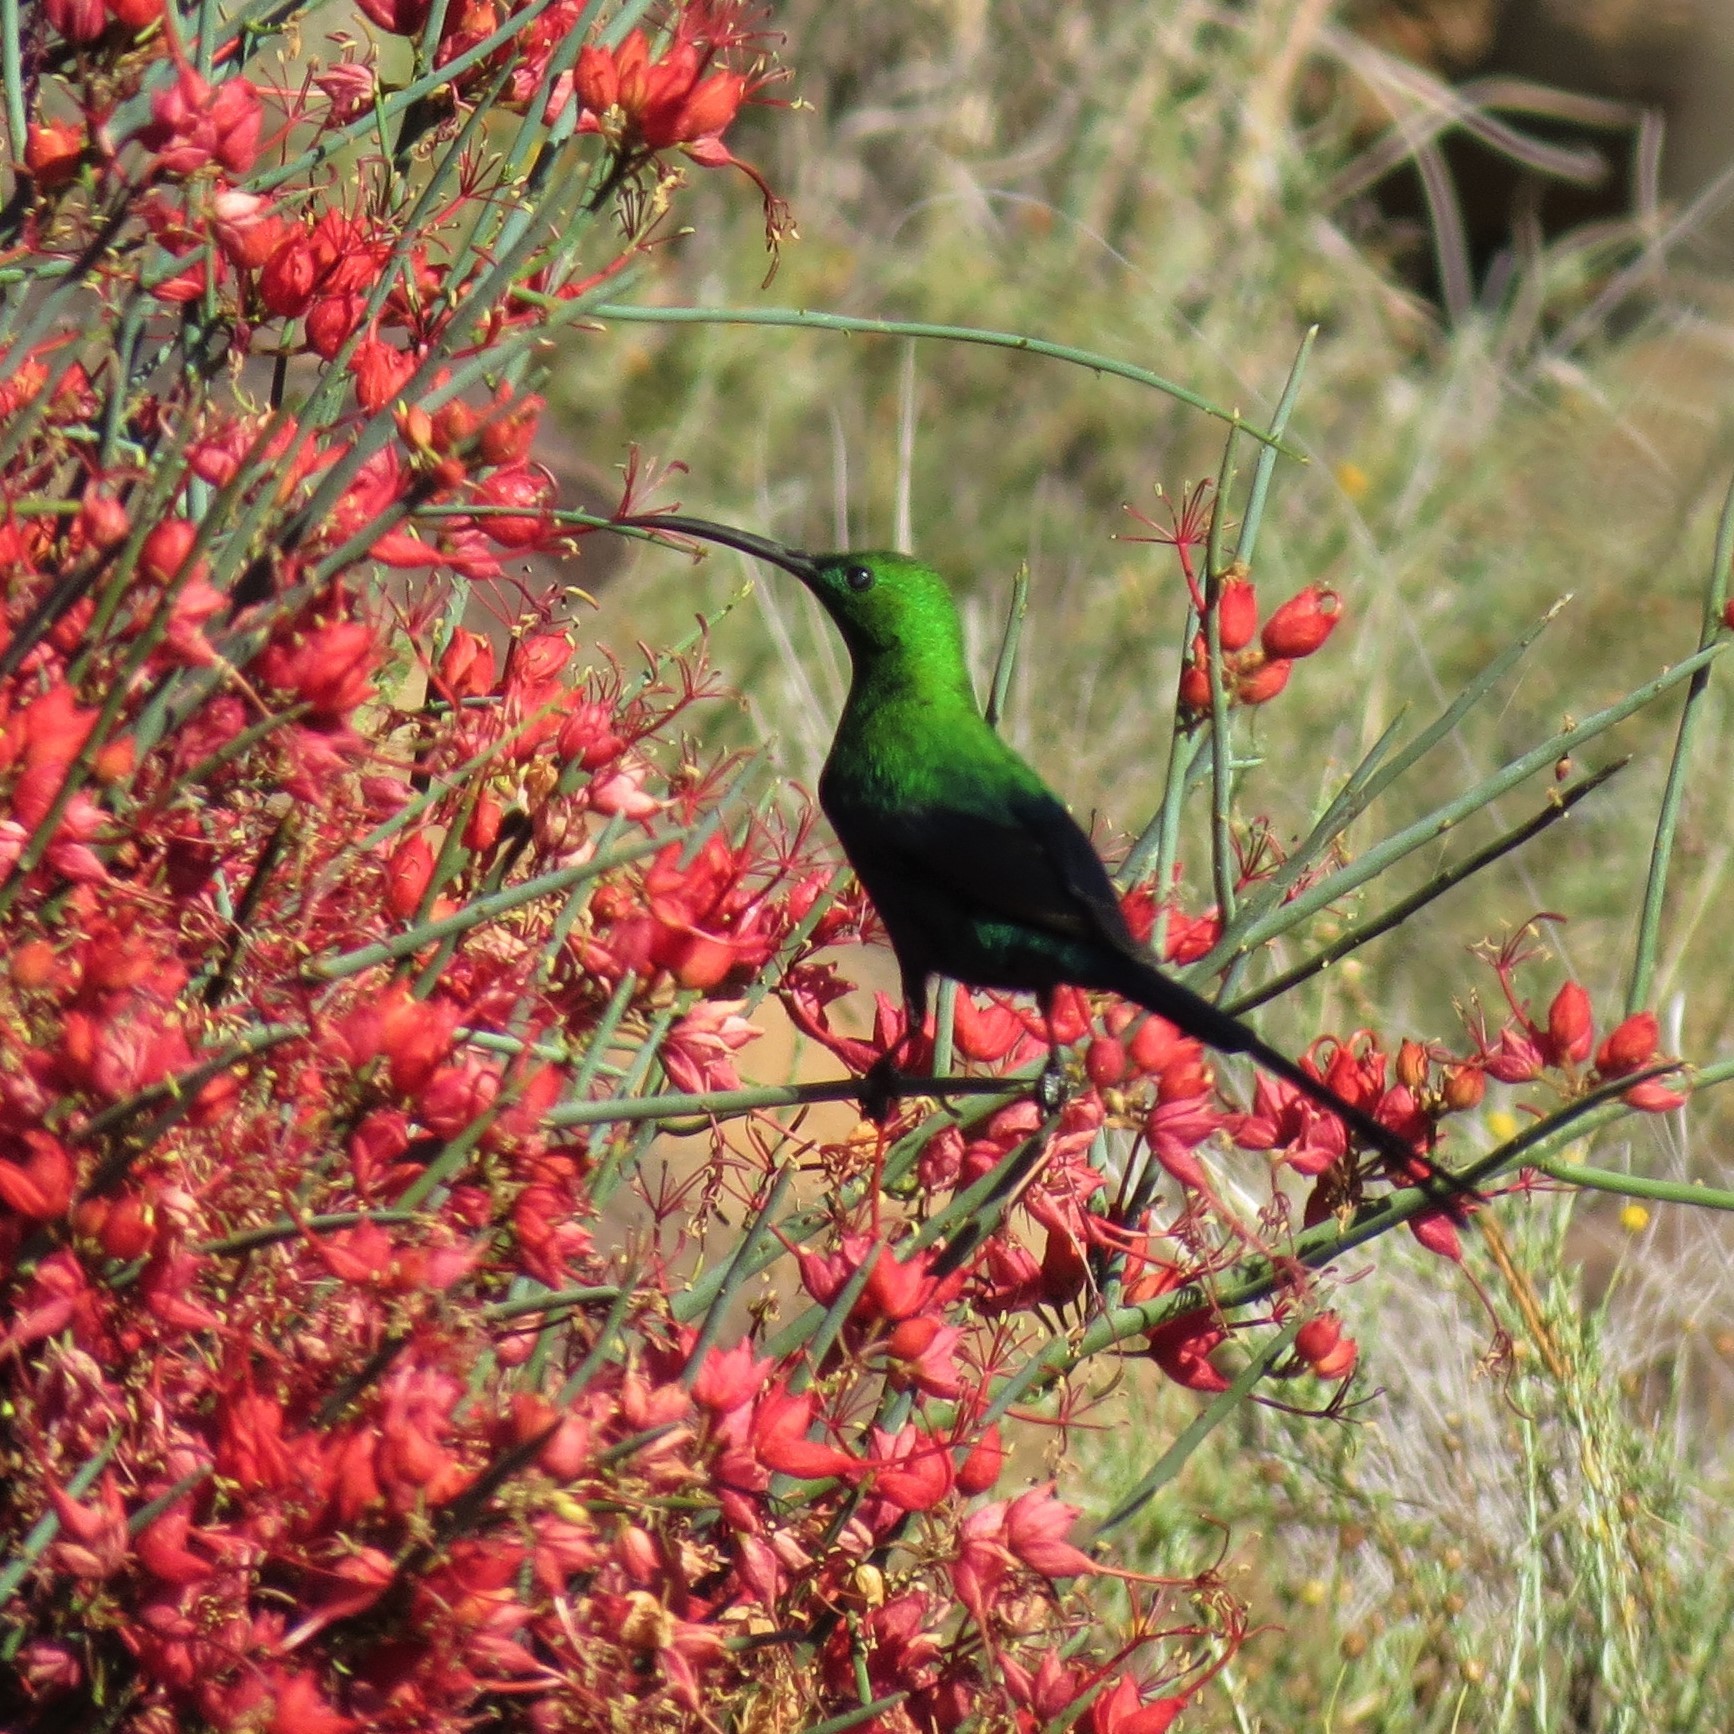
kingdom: Animalia
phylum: Chordata
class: Aves
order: Passeriformes
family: Nectariniidae
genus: Nectarinia
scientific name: Nectarinia famosa
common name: Malachite sunbird
